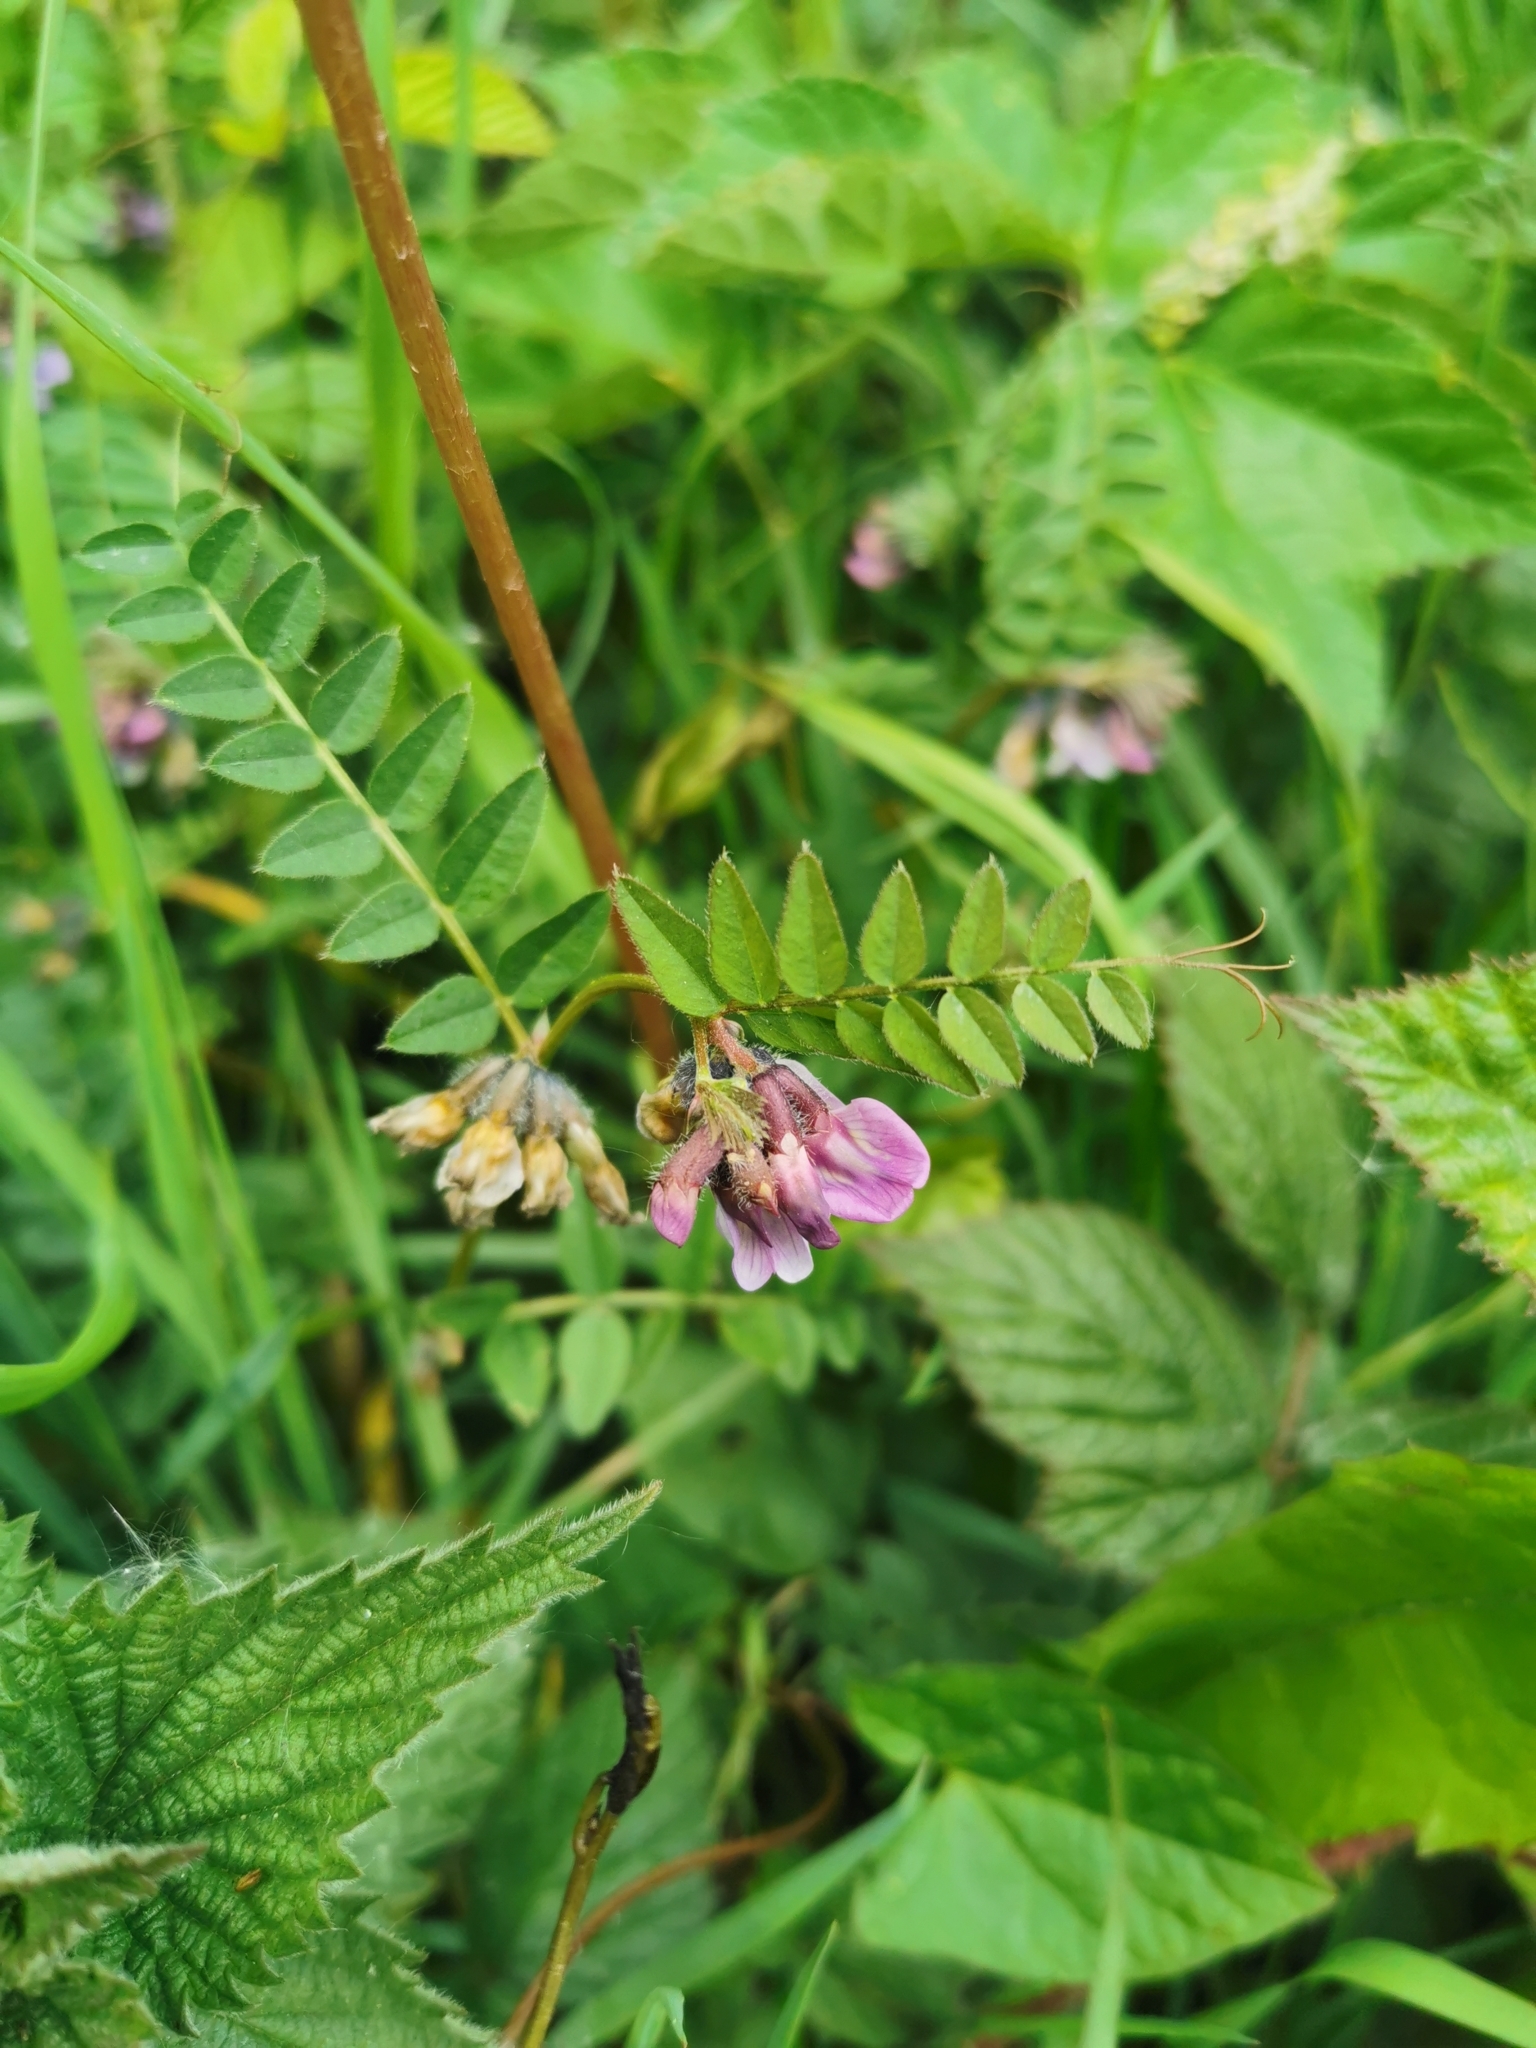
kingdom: Plantae
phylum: Tracheophyta
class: Magnoliopsida
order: Fabales
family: Fabaceae
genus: Vicia
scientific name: Vicia sepium
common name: Bush vetch
